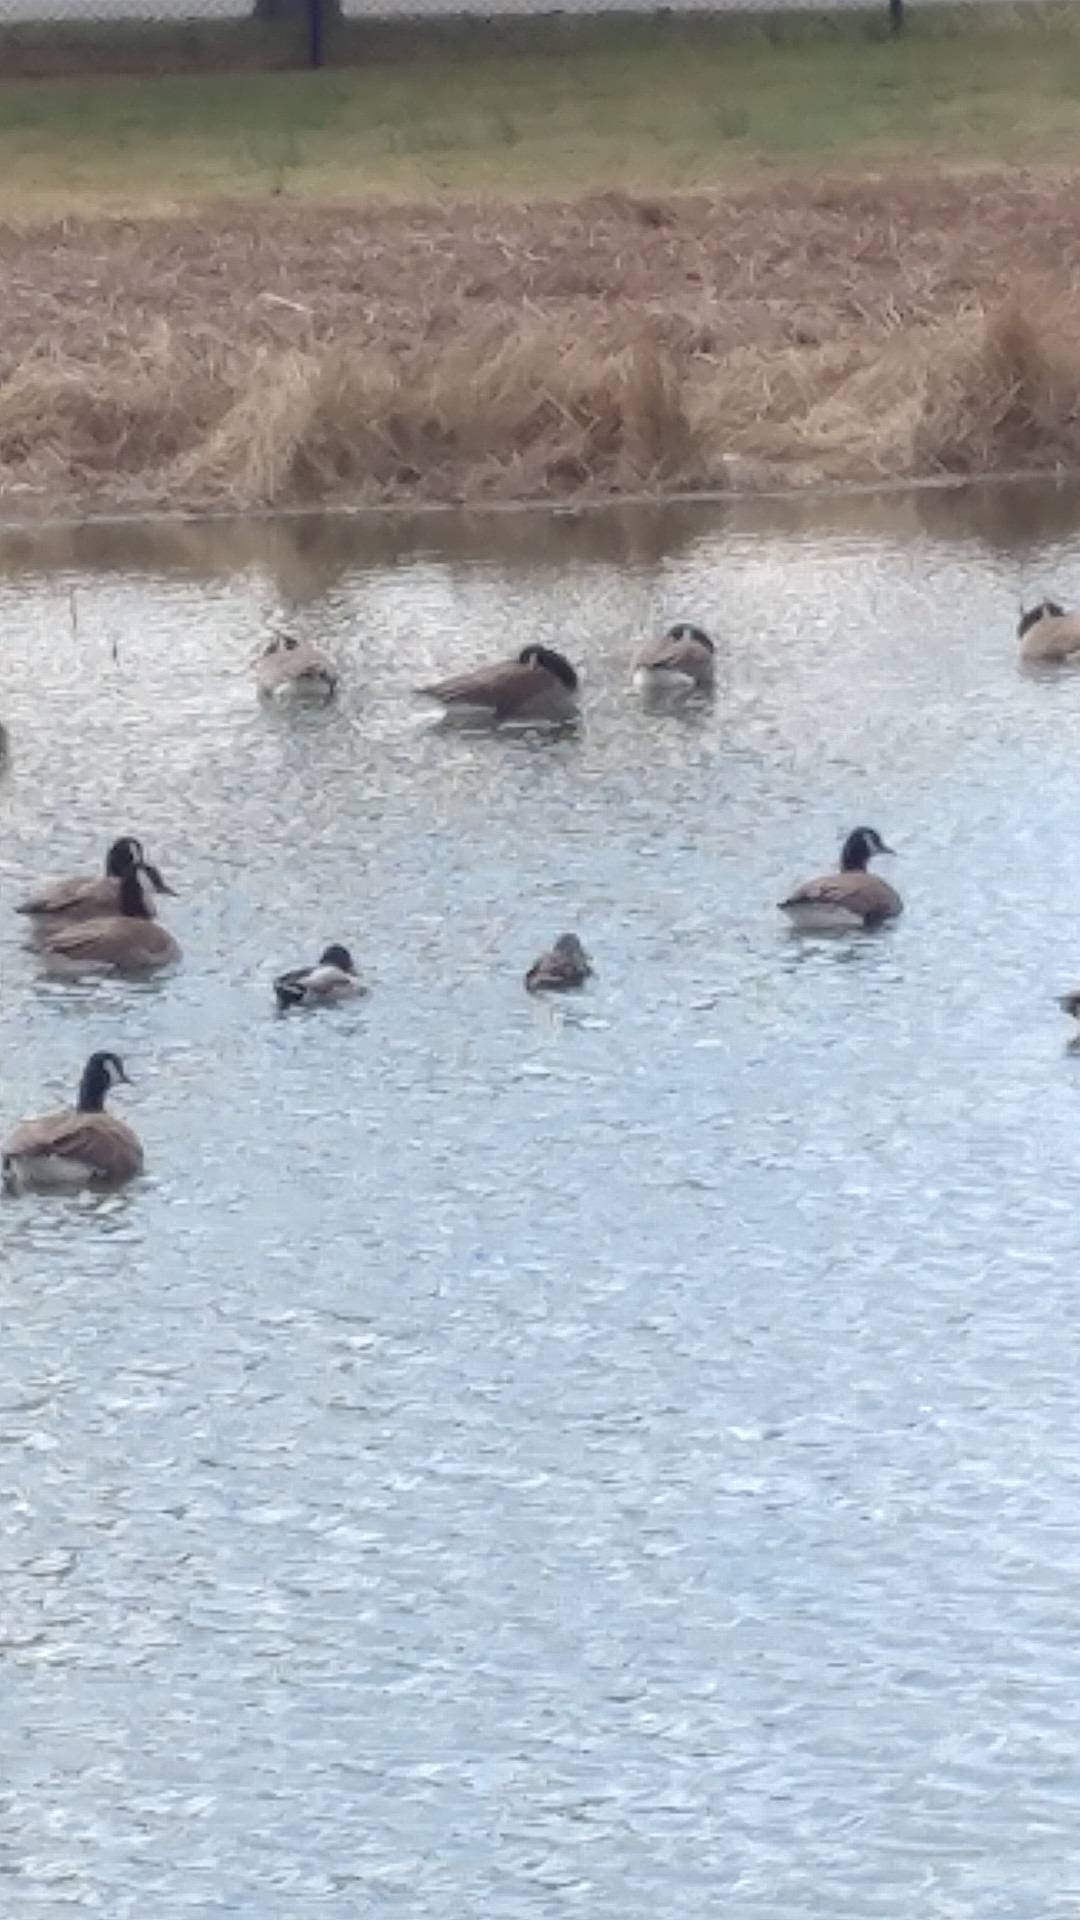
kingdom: Animalia
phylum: Chordata
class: Aves
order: Anseriformes
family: Anatidae
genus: Anas
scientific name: Anas platyrhynchos
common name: Mallard
